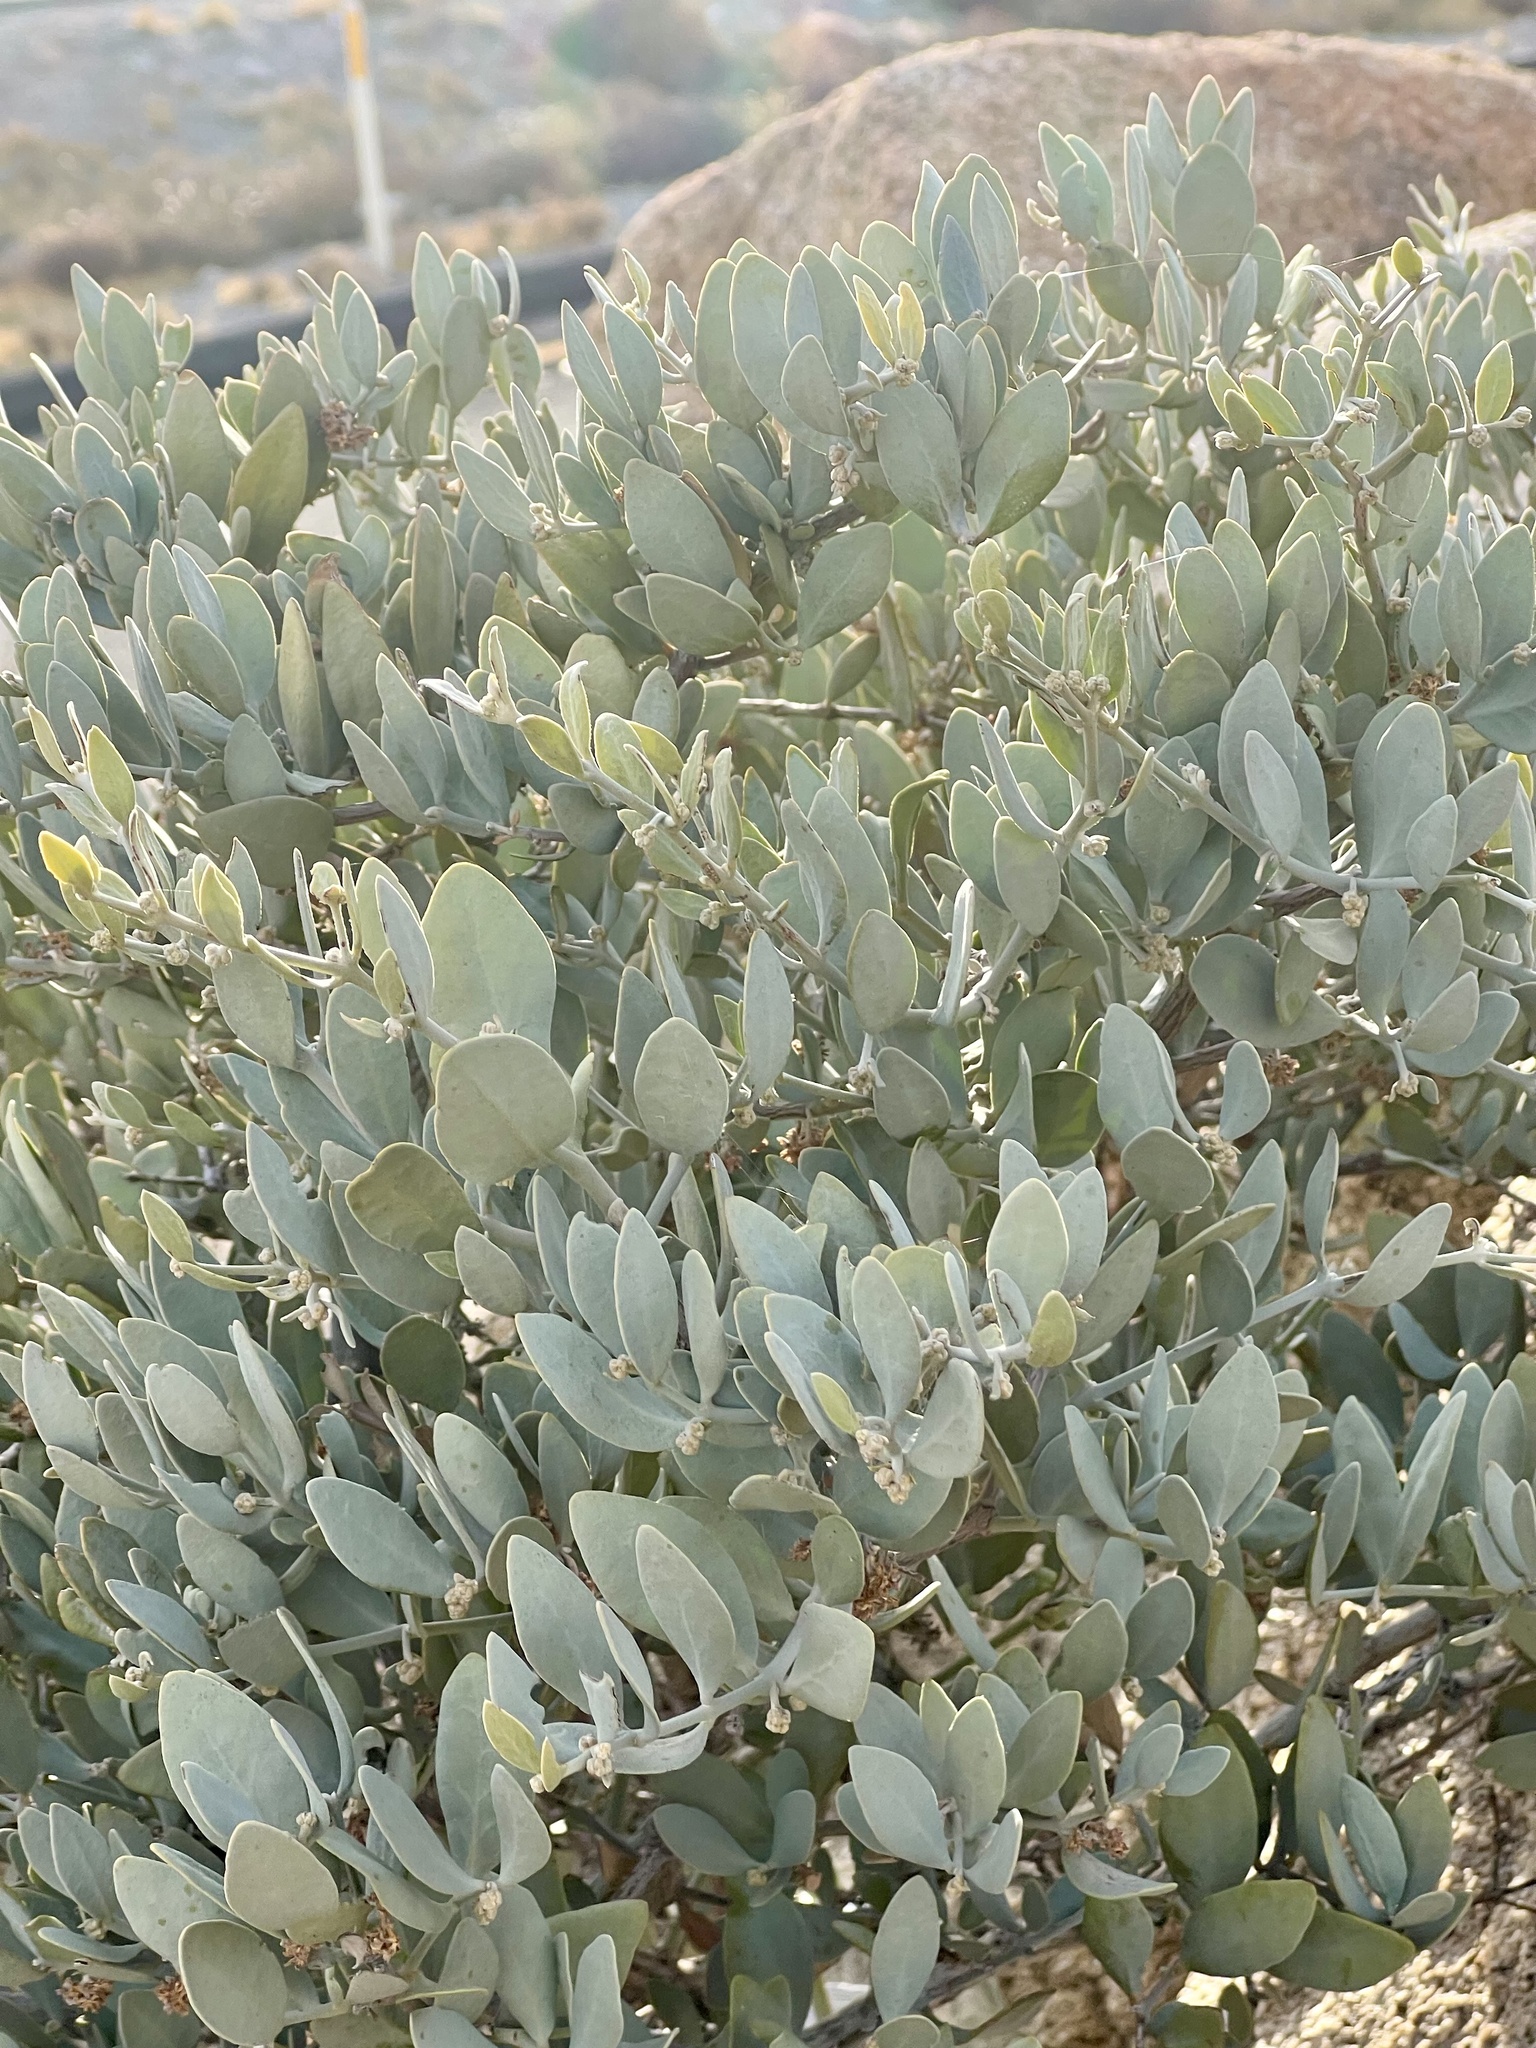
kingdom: Plantae
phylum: Tracheophyta
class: Magnoliopsida
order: Caryophyllales
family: Simmondsiaceae
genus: Simmondsia
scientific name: Simmondsia chinensis
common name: Jojoba
